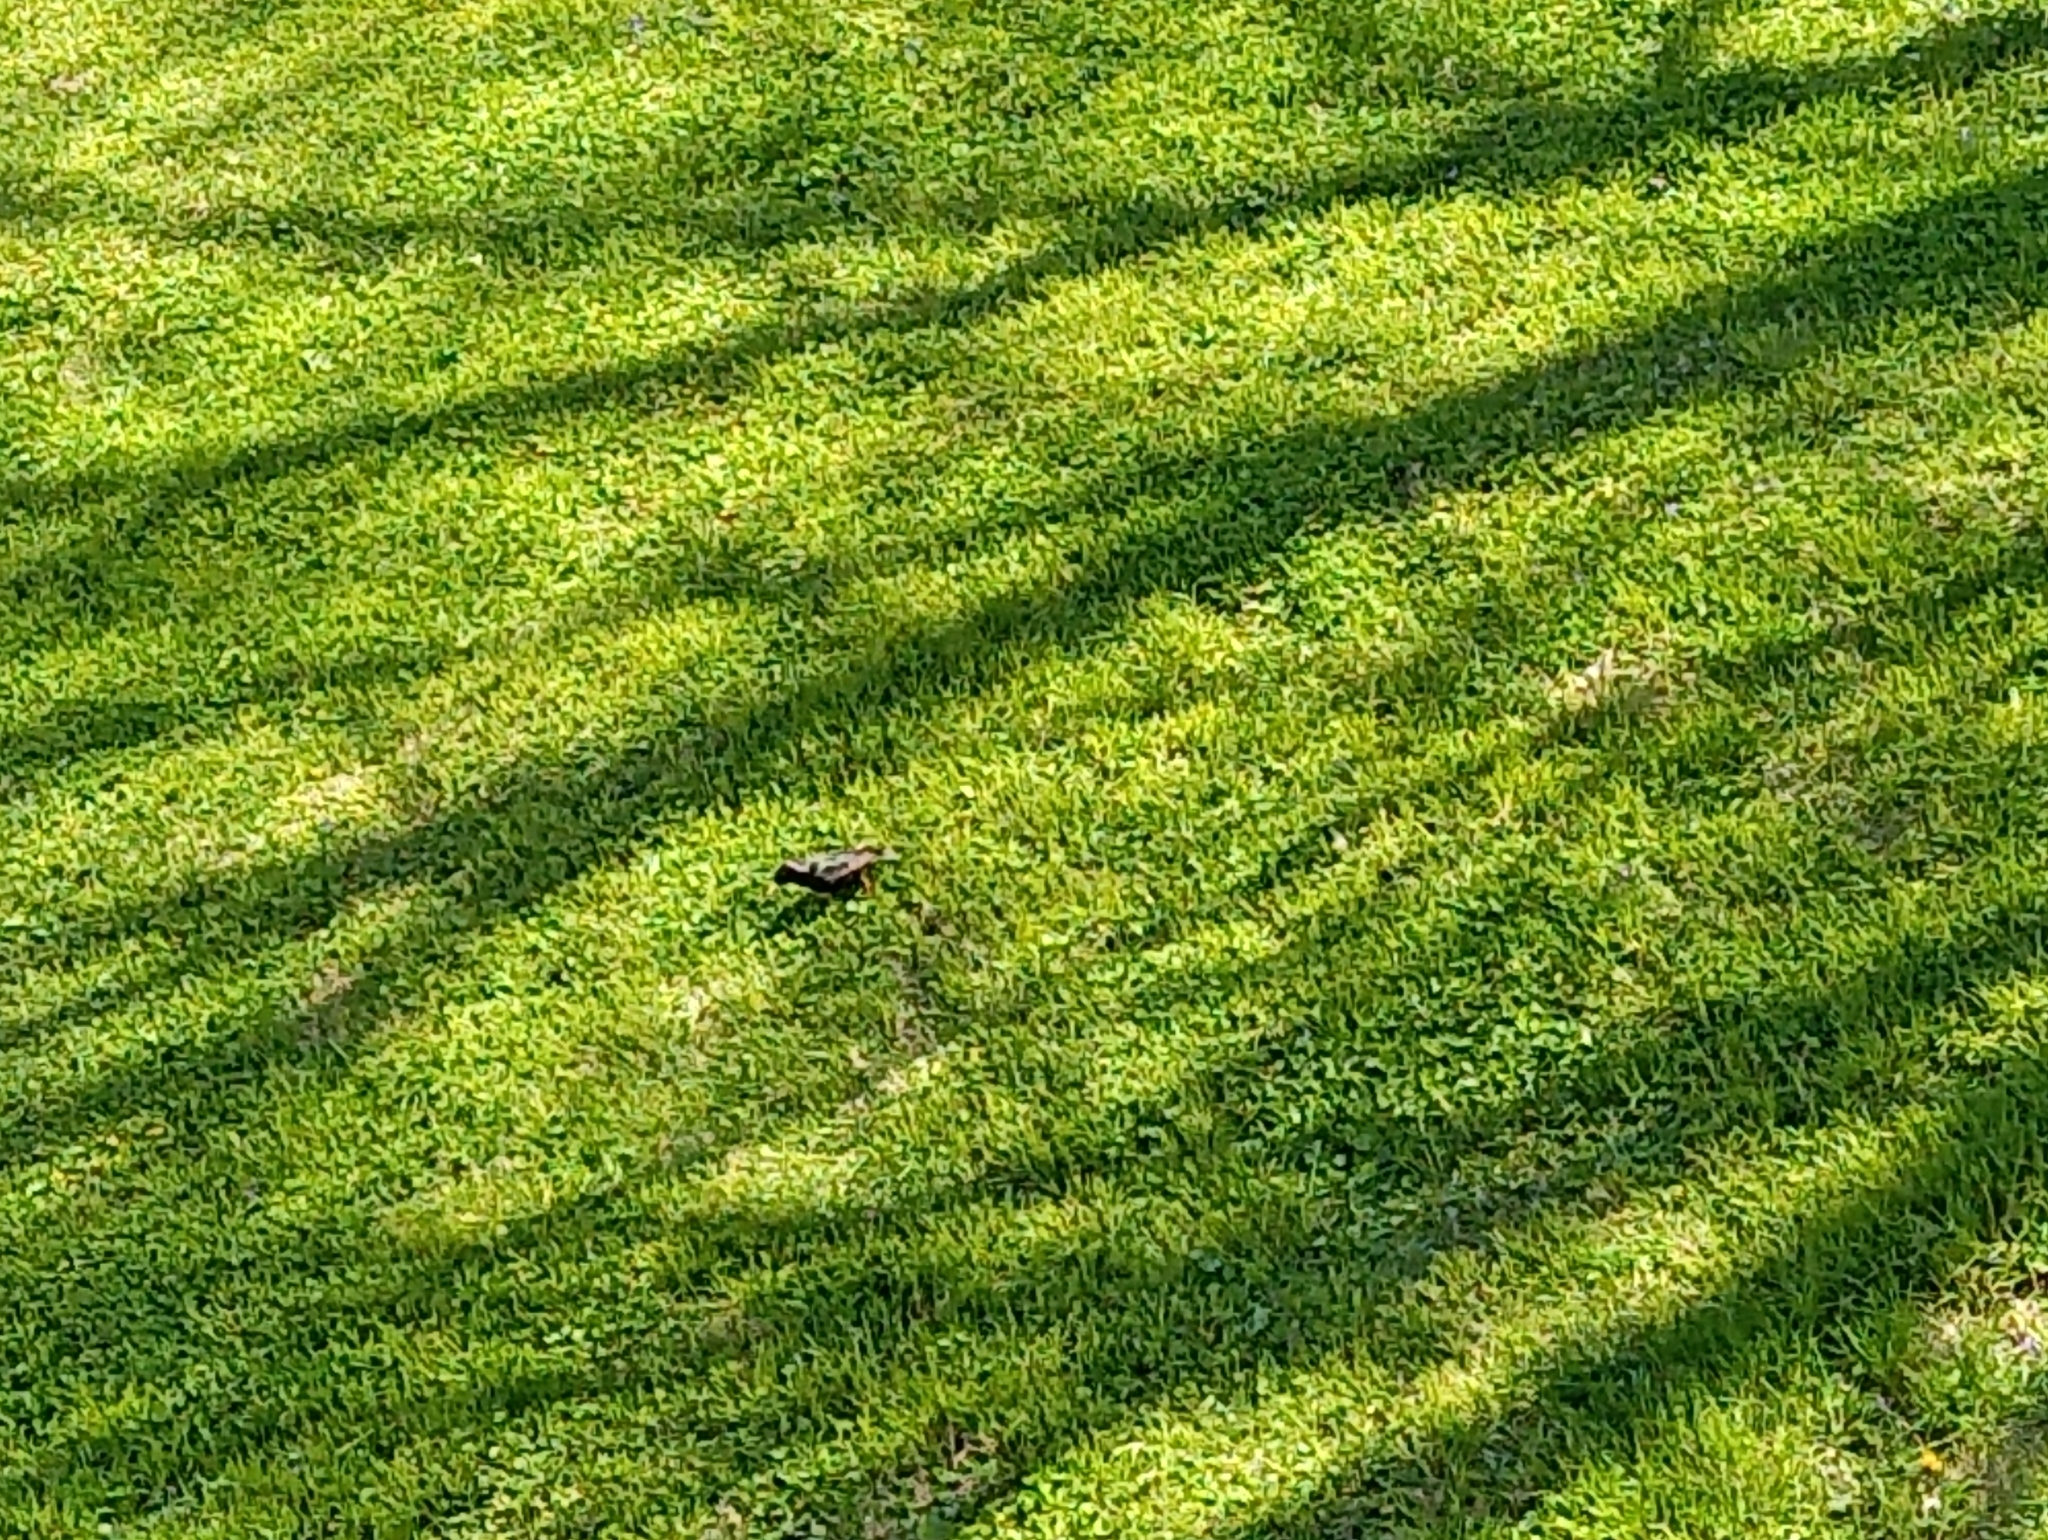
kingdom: Animalia
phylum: Chordata
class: Aves
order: Passeriformes
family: Sturnidae
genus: Sturnus
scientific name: Sturnus vulgaris
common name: Common starling
